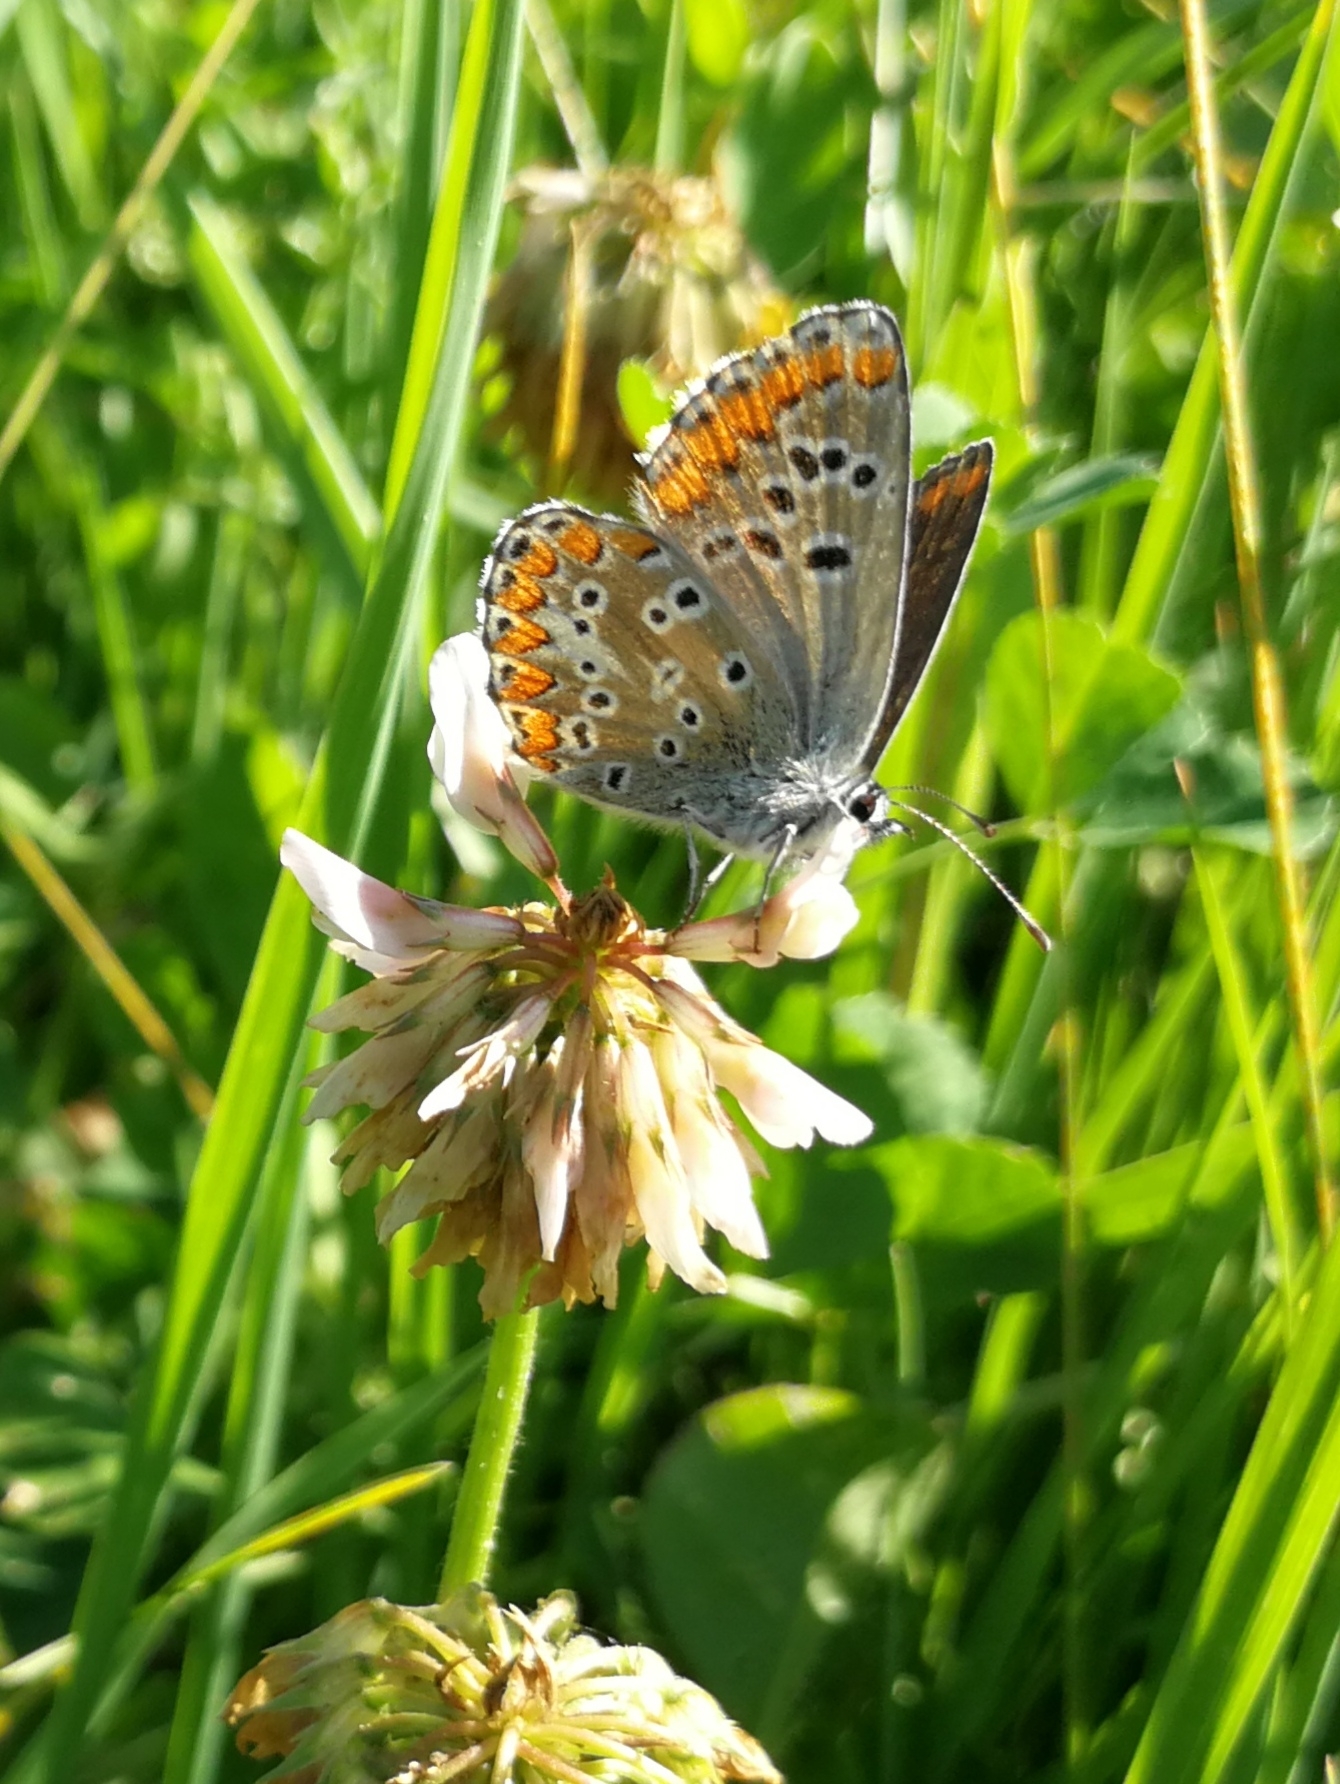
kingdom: Animalia
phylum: Arthropoda
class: Insecta
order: Lepidoptera
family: Lycaenidae
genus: Aricia
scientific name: Aricia cramera
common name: Eschscholtz´s brown  argus
